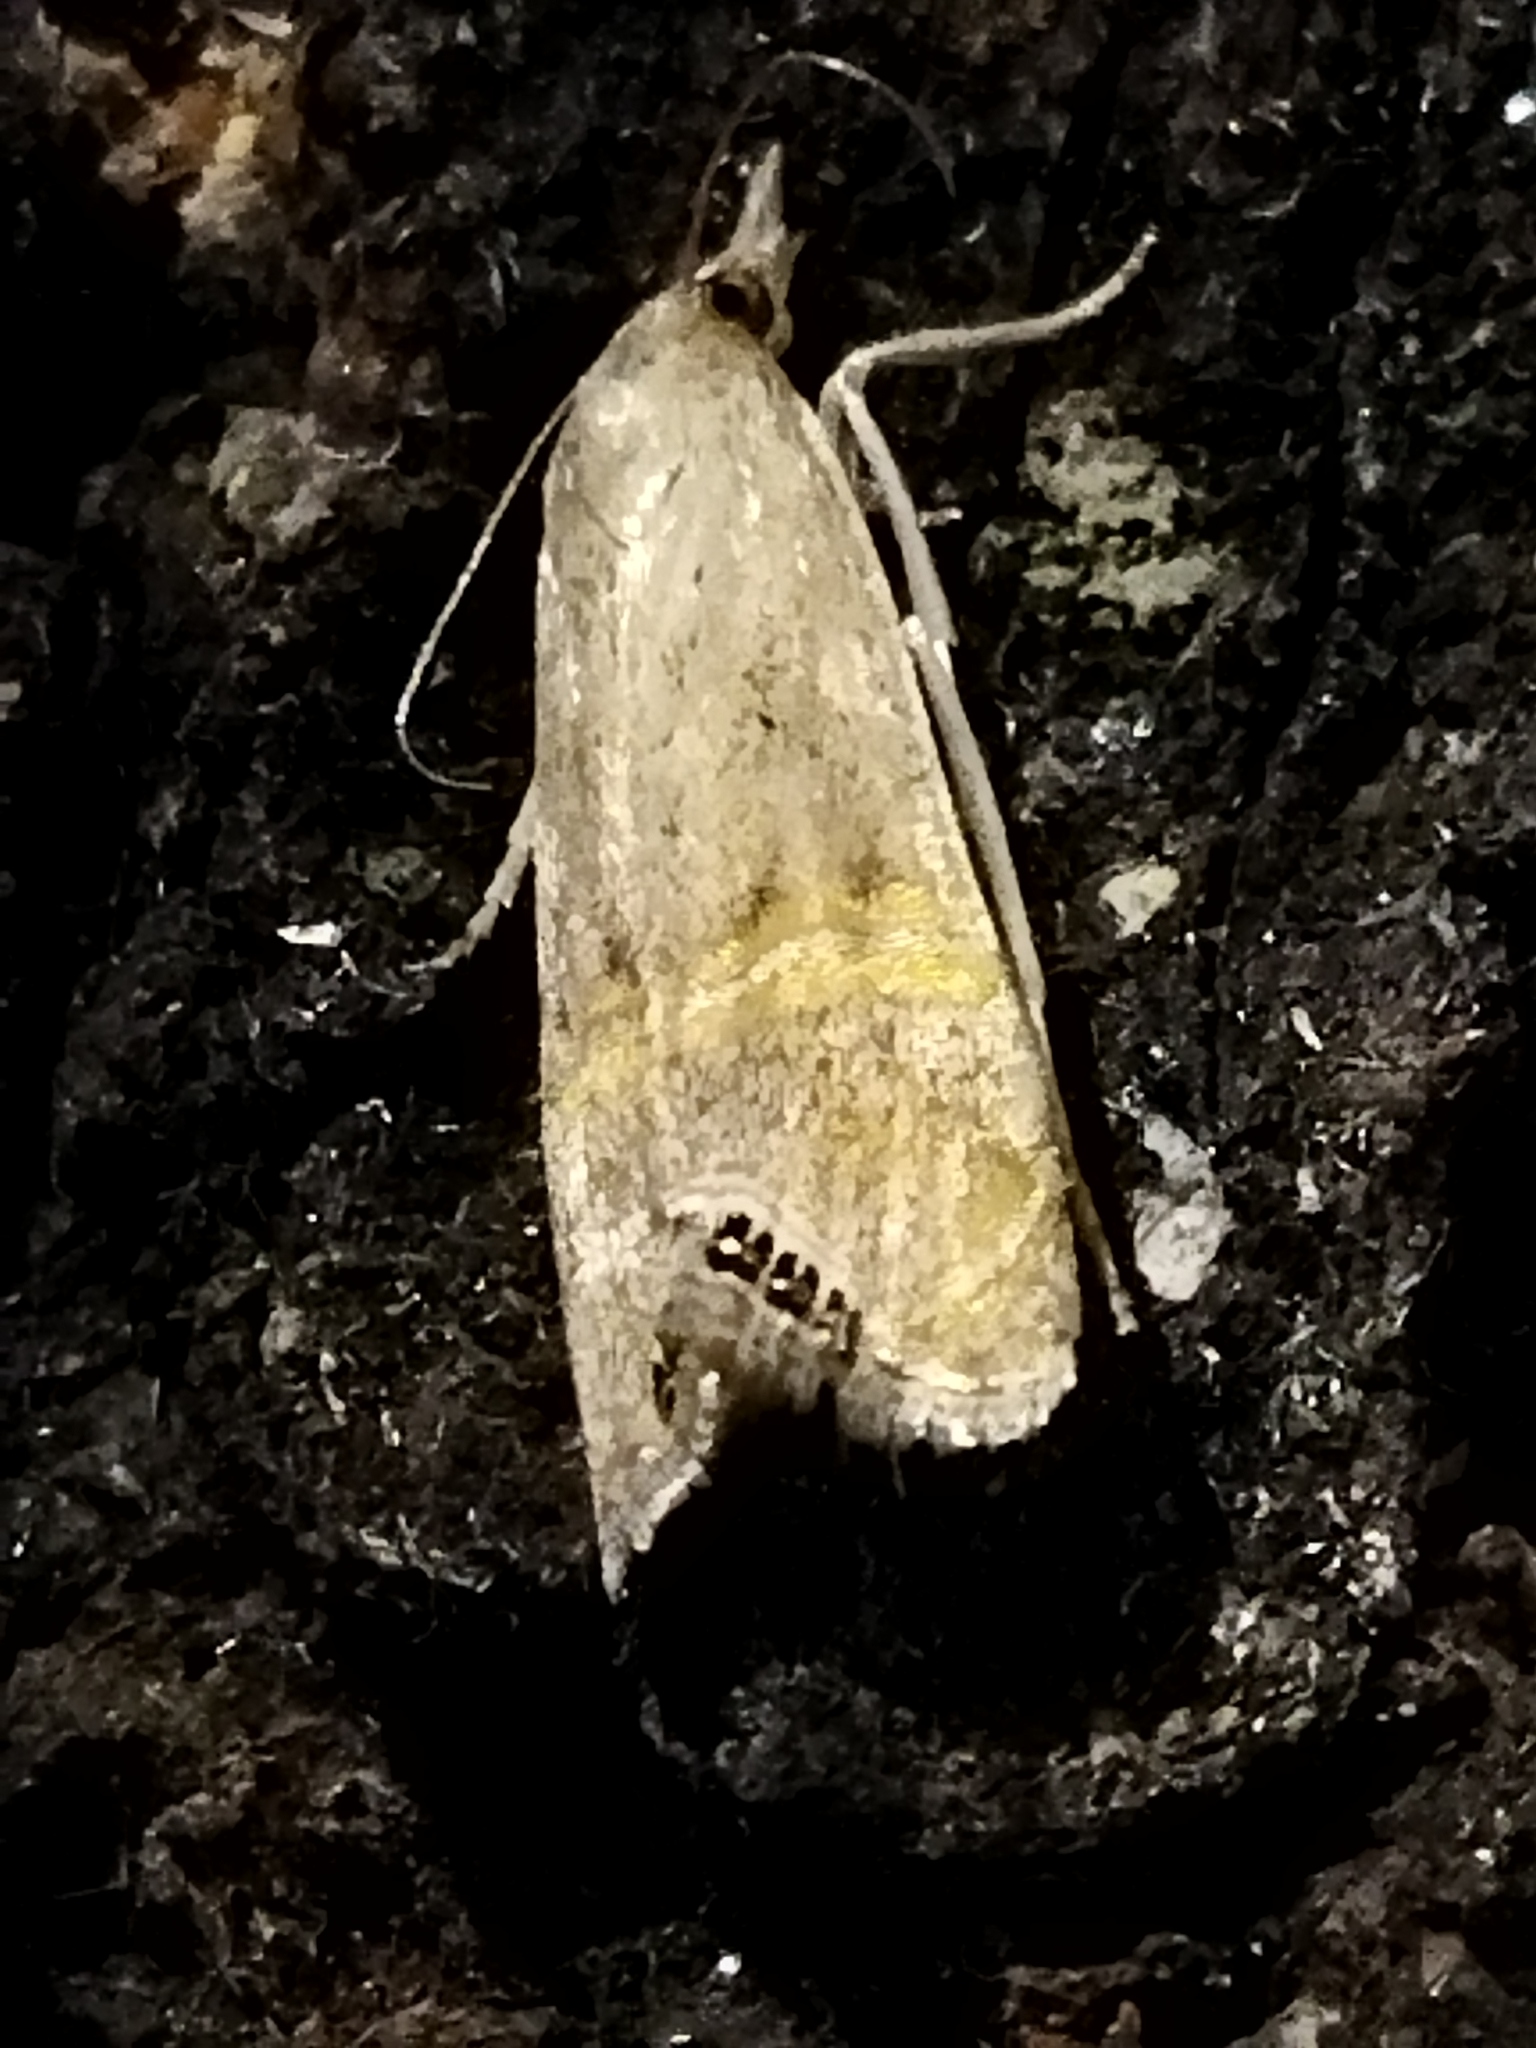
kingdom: Animalia
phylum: Arthropoda
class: Insecta
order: Lepidoptera
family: Crambidae
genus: Euchromius
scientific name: Euchromius ocellea
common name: Necklace veneer moth
